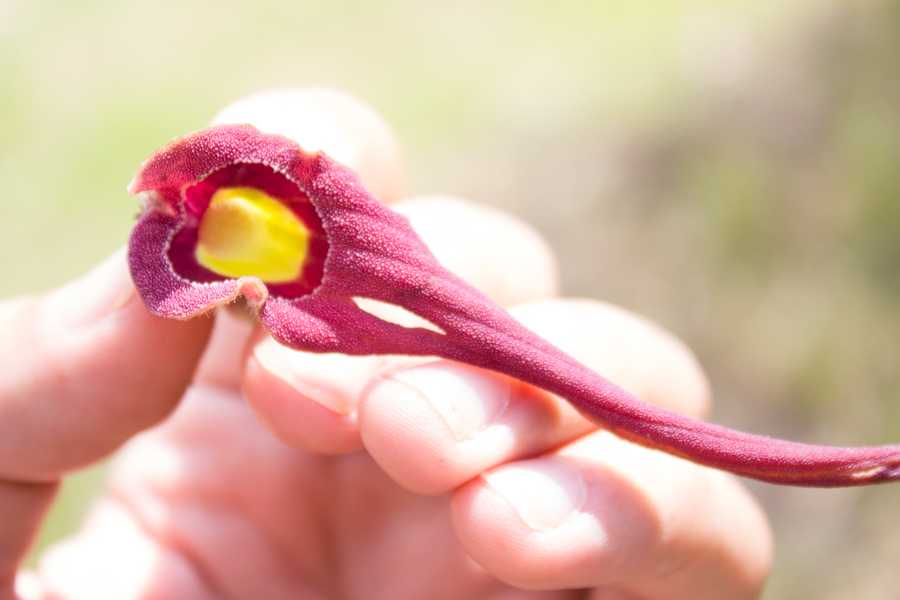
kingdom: Plantae
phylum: Tracheophyta
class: Magnoliopsida
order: Piperales
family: Aristolochiaceae
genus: Aristolochia
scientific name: Aristolochia foetida
